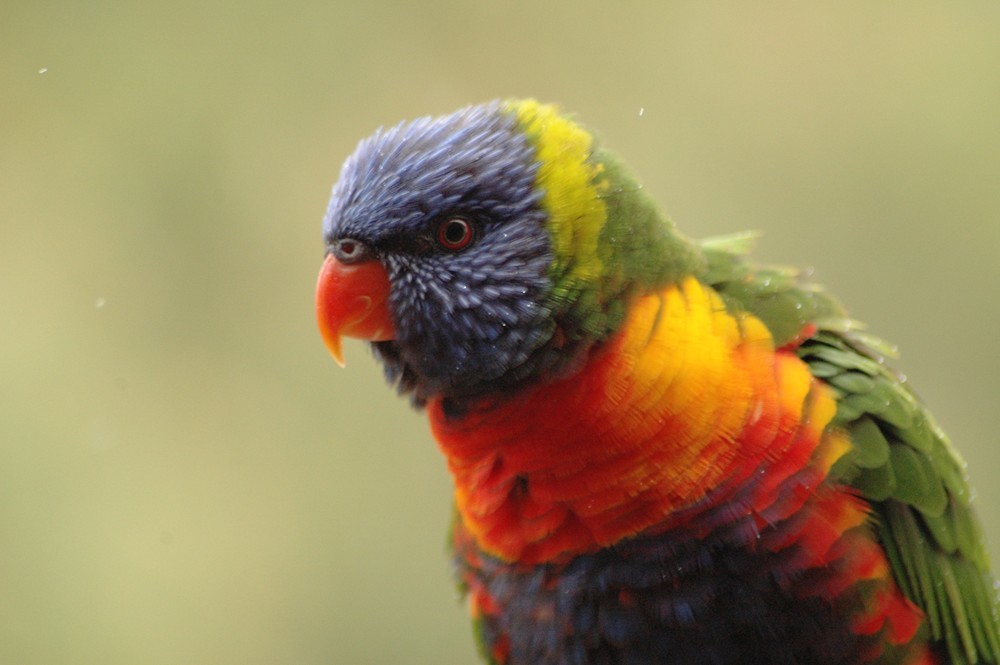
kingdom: Animalia
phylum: Chordata
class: Aves
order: Psittaciformes
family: Psittacidae
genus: Trichoglossus
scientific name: Trichoglossus haematodus
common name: Coconut lorikeet
